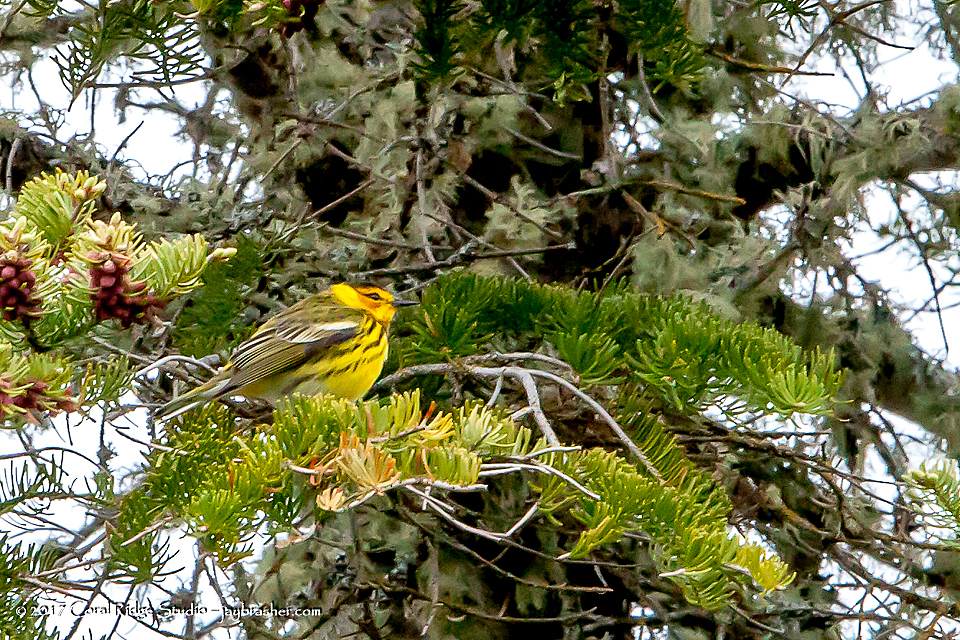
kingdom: Animalia
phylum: Chordata
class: Aves
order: Passeriformes
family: Parulidae
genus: Setophaga
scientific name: Setophaga tigrina
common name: Cape may warbler
